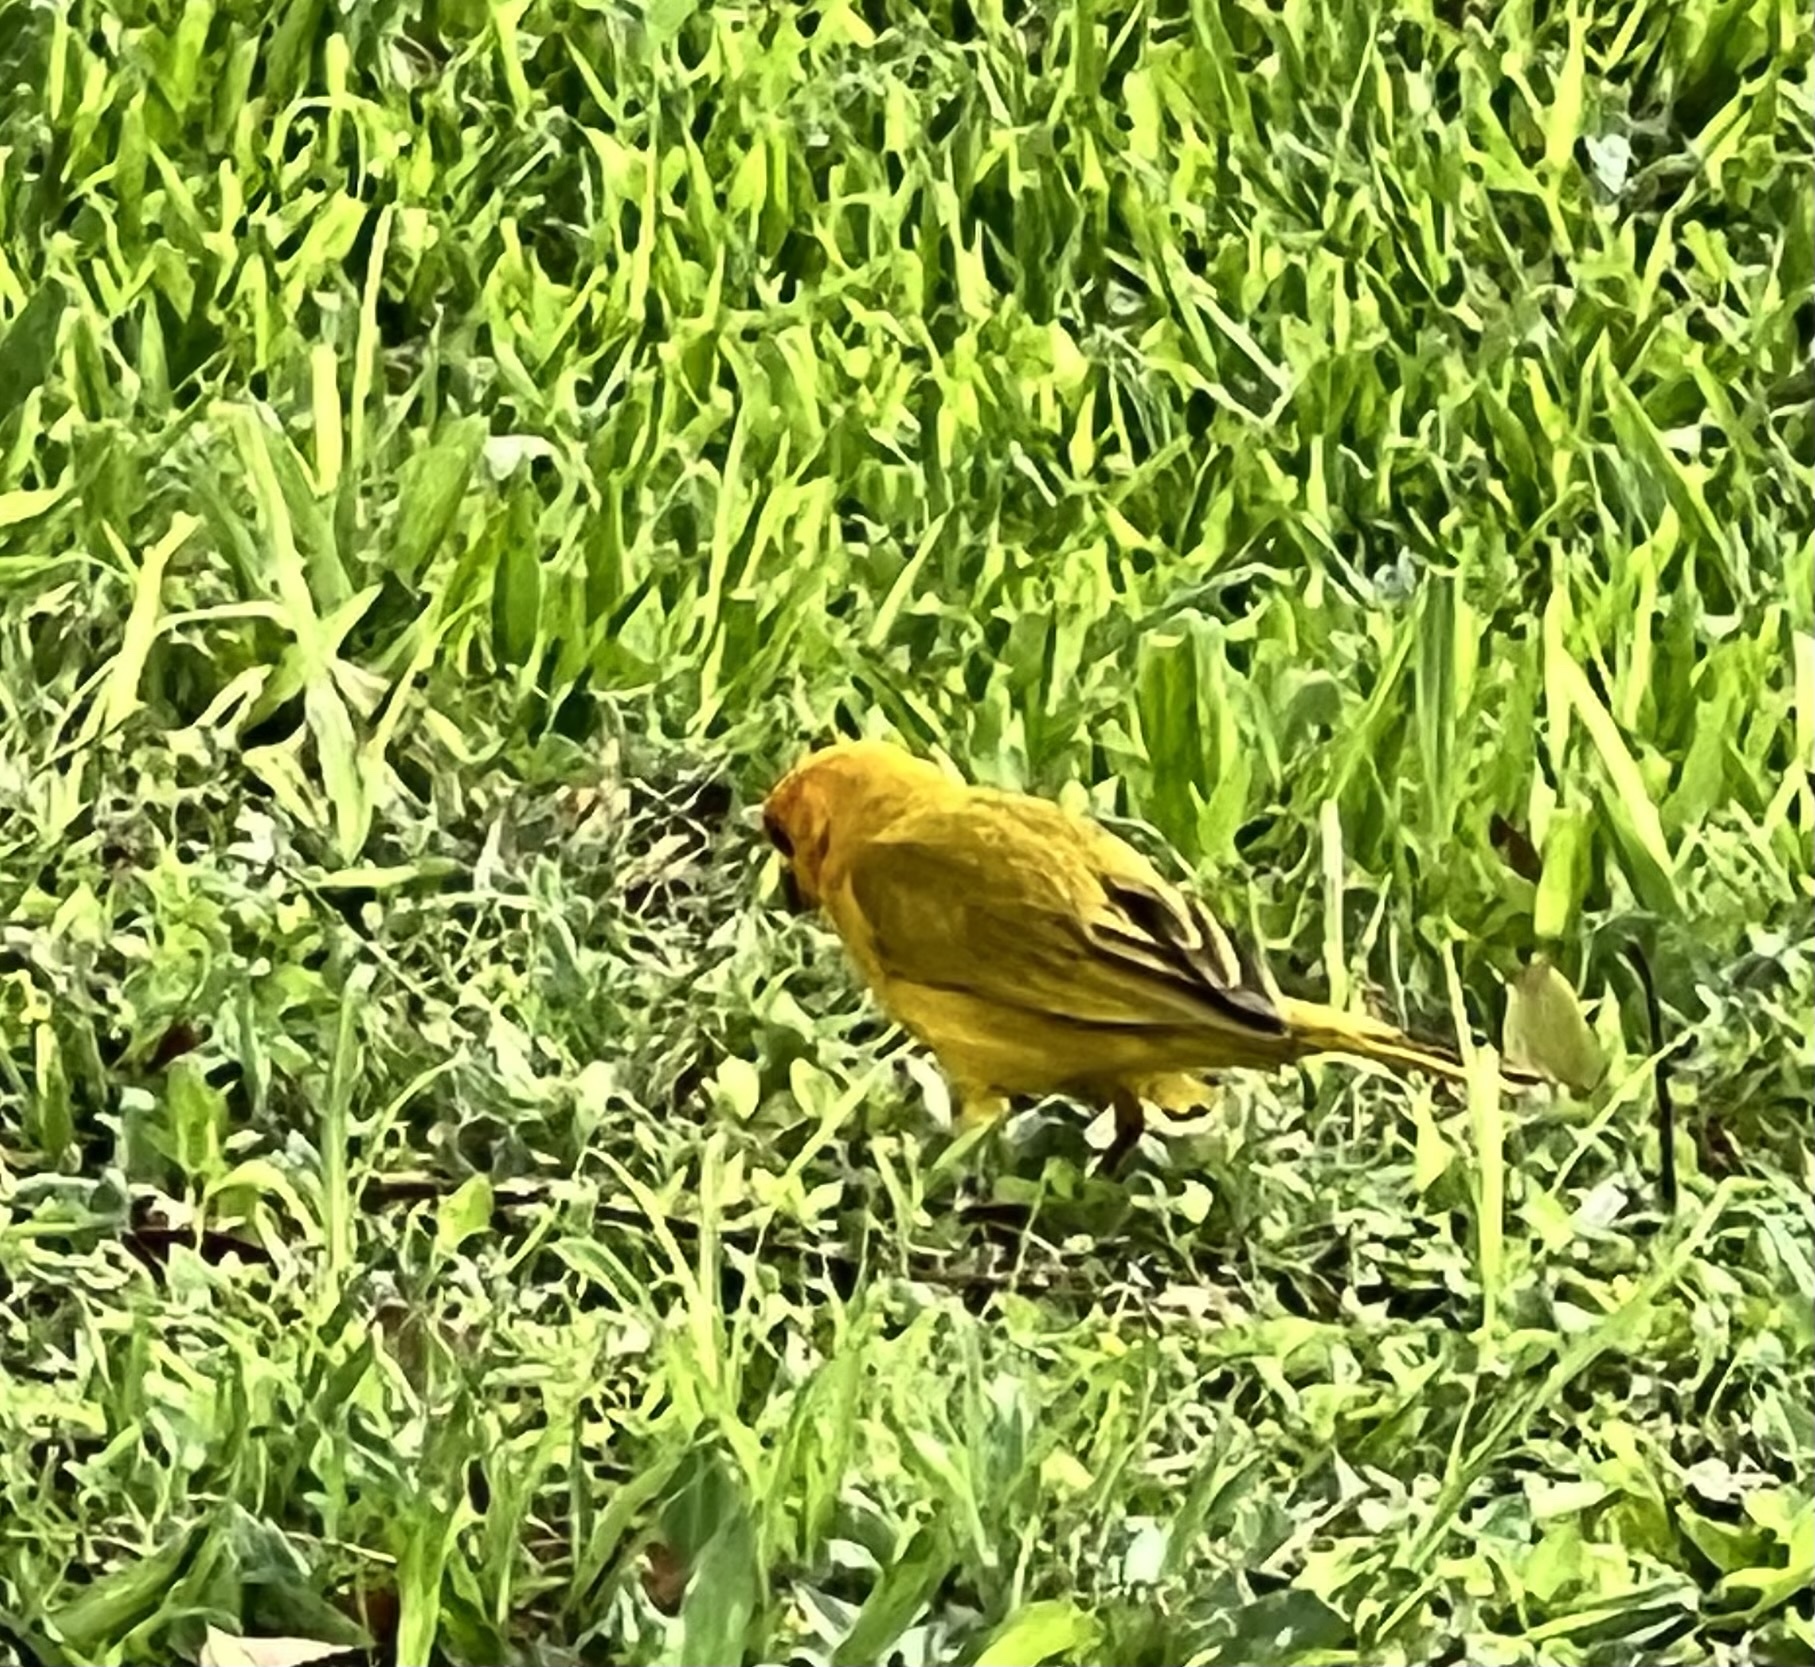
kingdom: Animalia
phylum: Chordata
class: Aves
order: Passeriformes
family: Thraupidae
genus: Sicalis
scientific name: Sicalis flaveola
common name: Saffron finch
